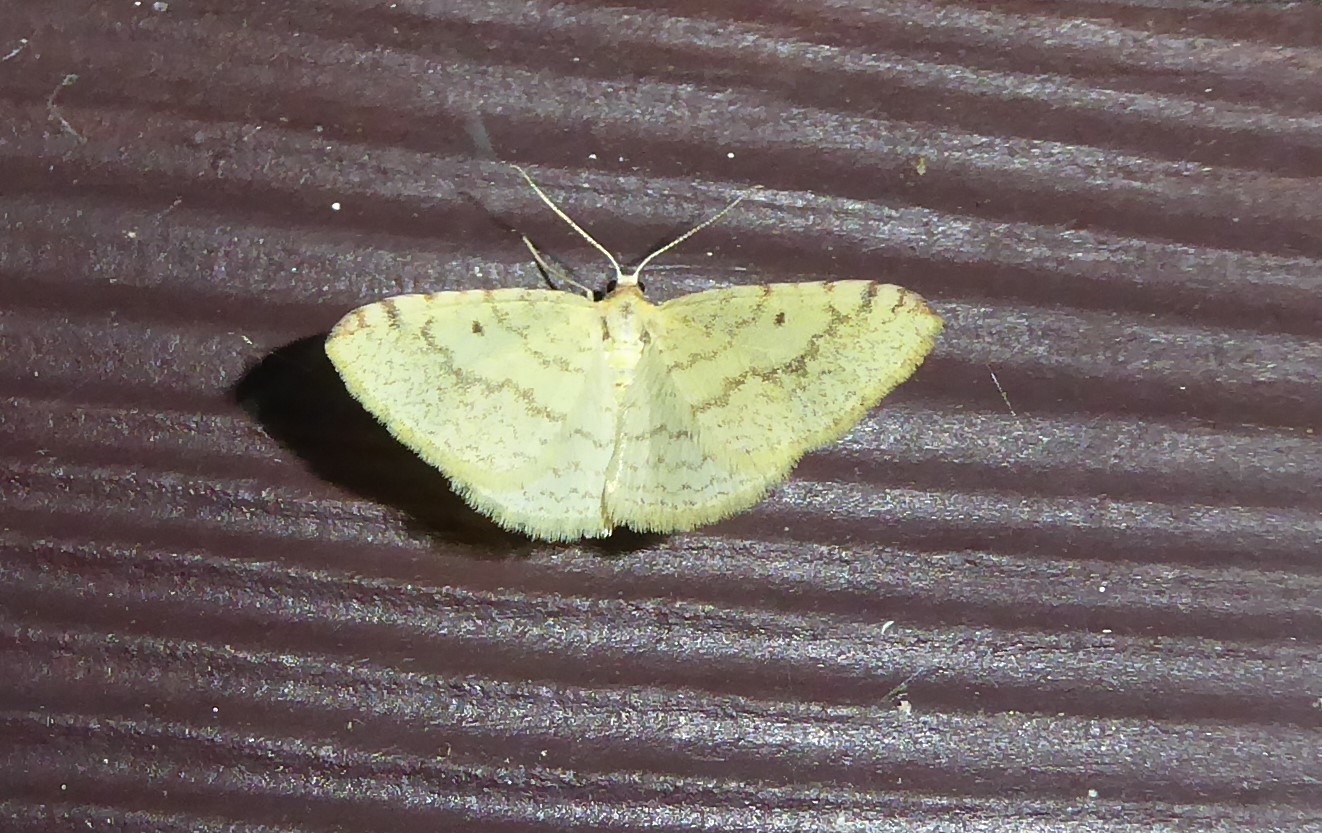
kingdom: Animalia
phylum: Arthropoda
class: Insecta
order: Lepidoptera
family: Geometridae
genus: Epiphryne
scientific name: Epiphryne undosata
